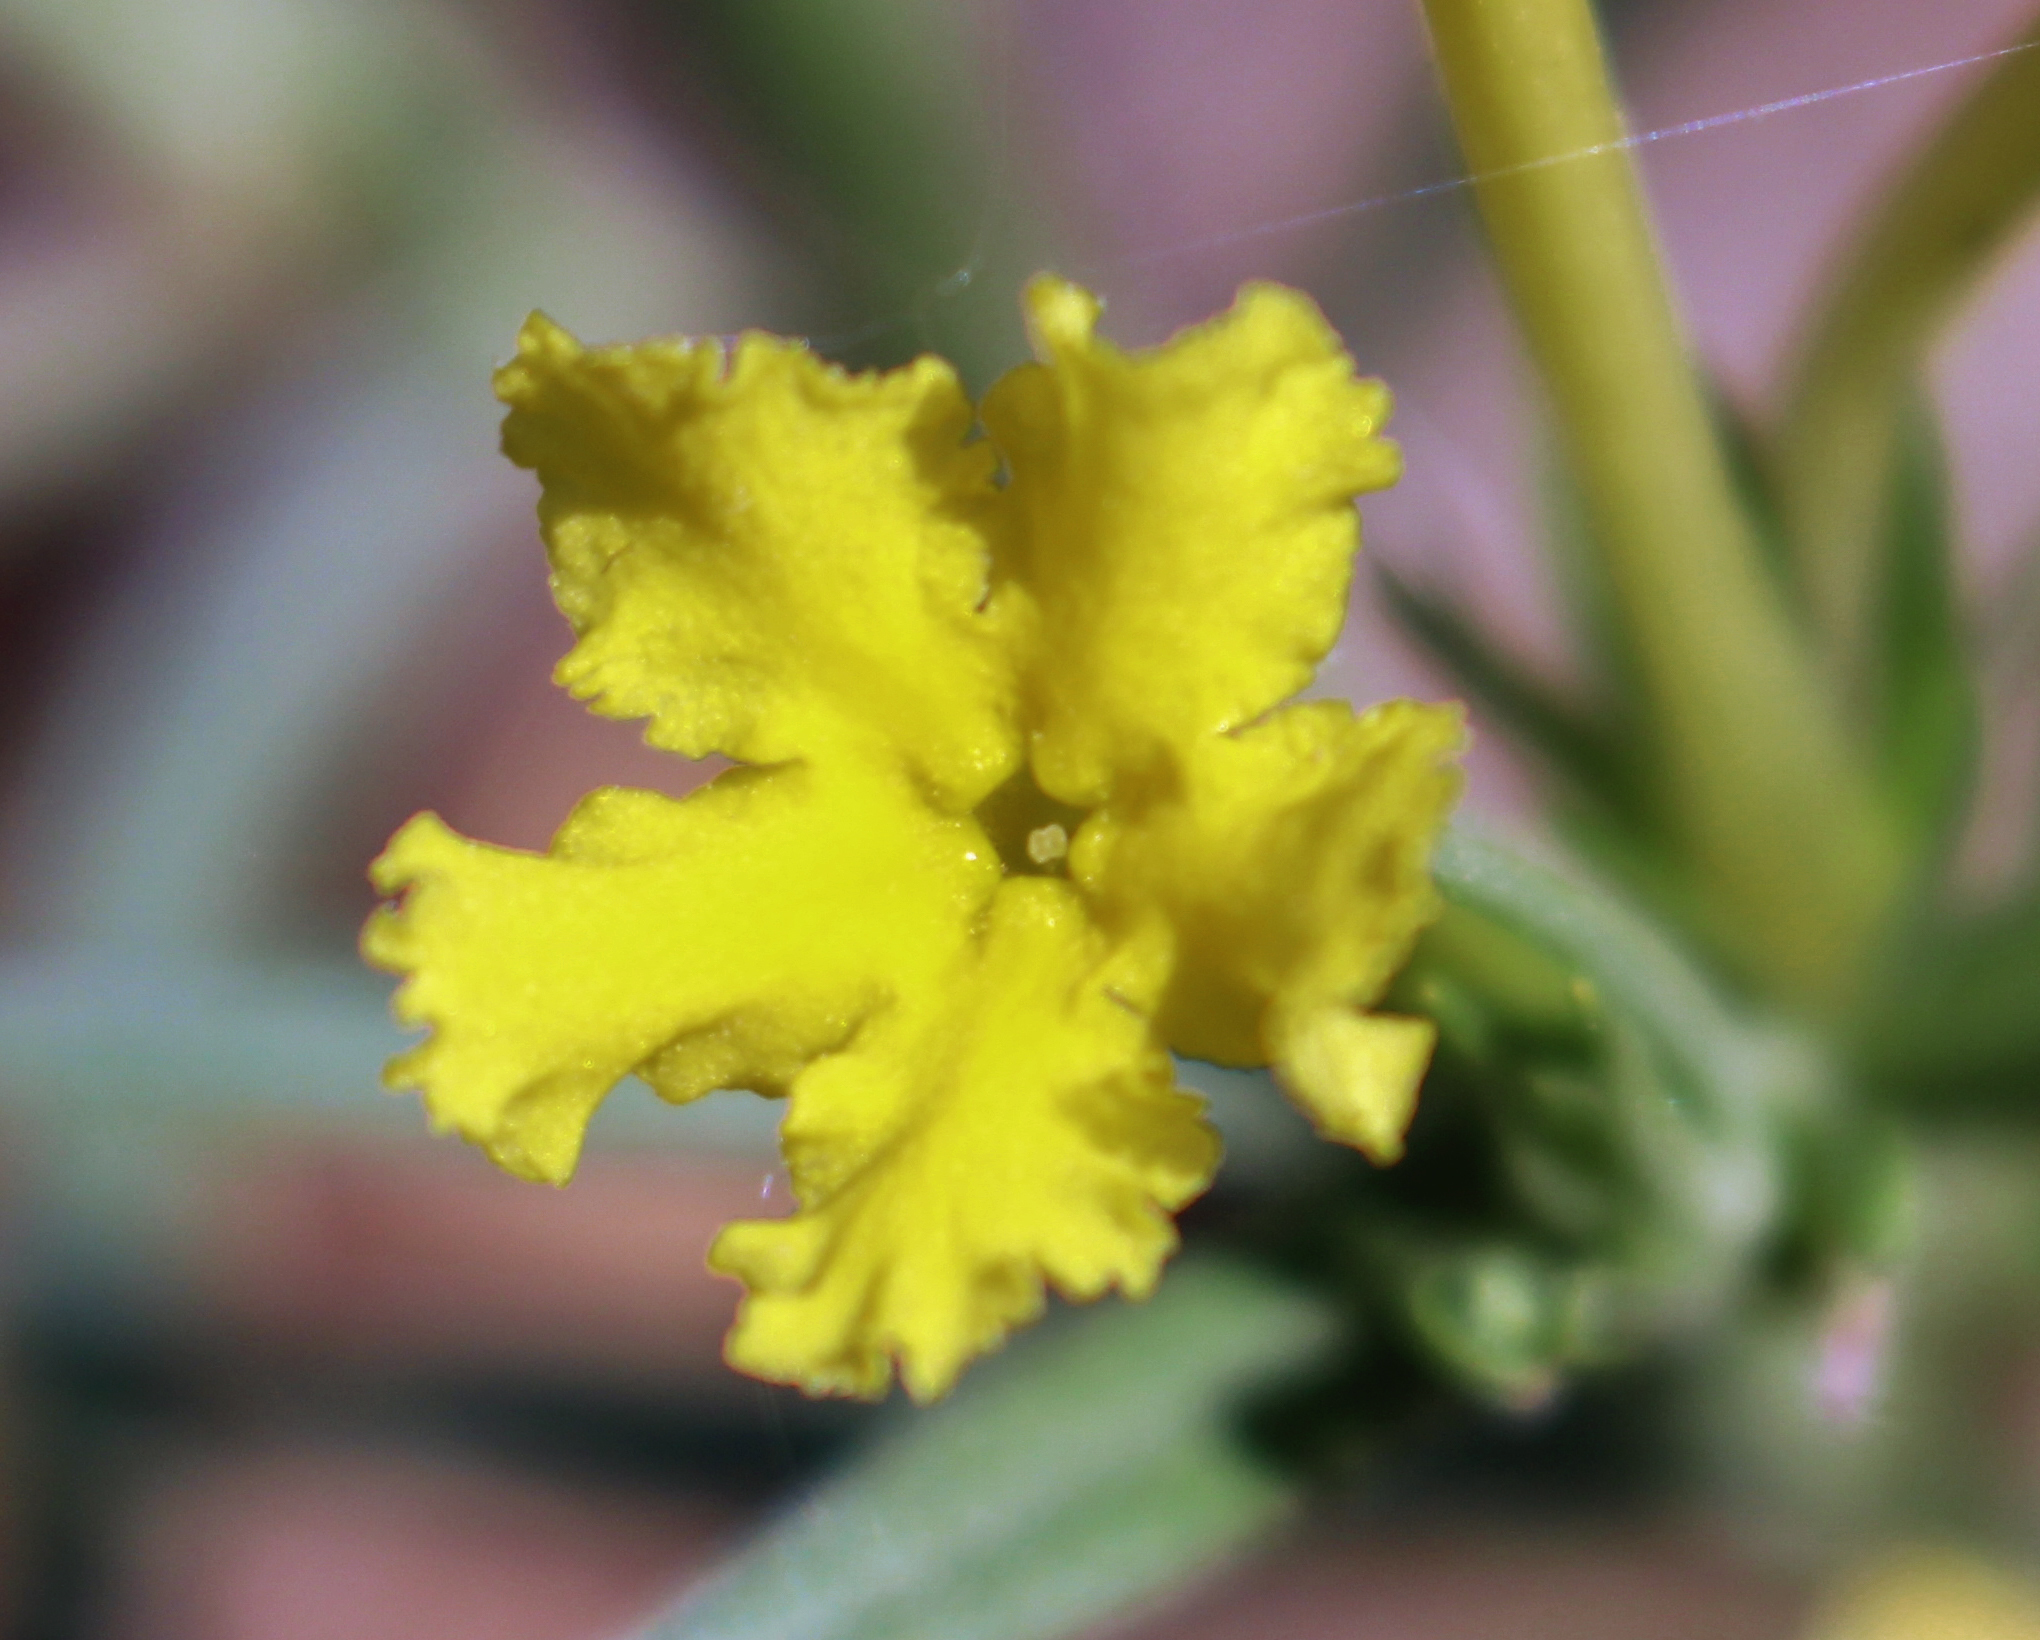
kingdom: Plantae
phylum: Tracheophyta
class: Magnoliopsida
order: Boraginales
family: Boraginaceae
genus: Lithospermum
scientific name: Lithospermum incisum
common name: Fringed gromwell
